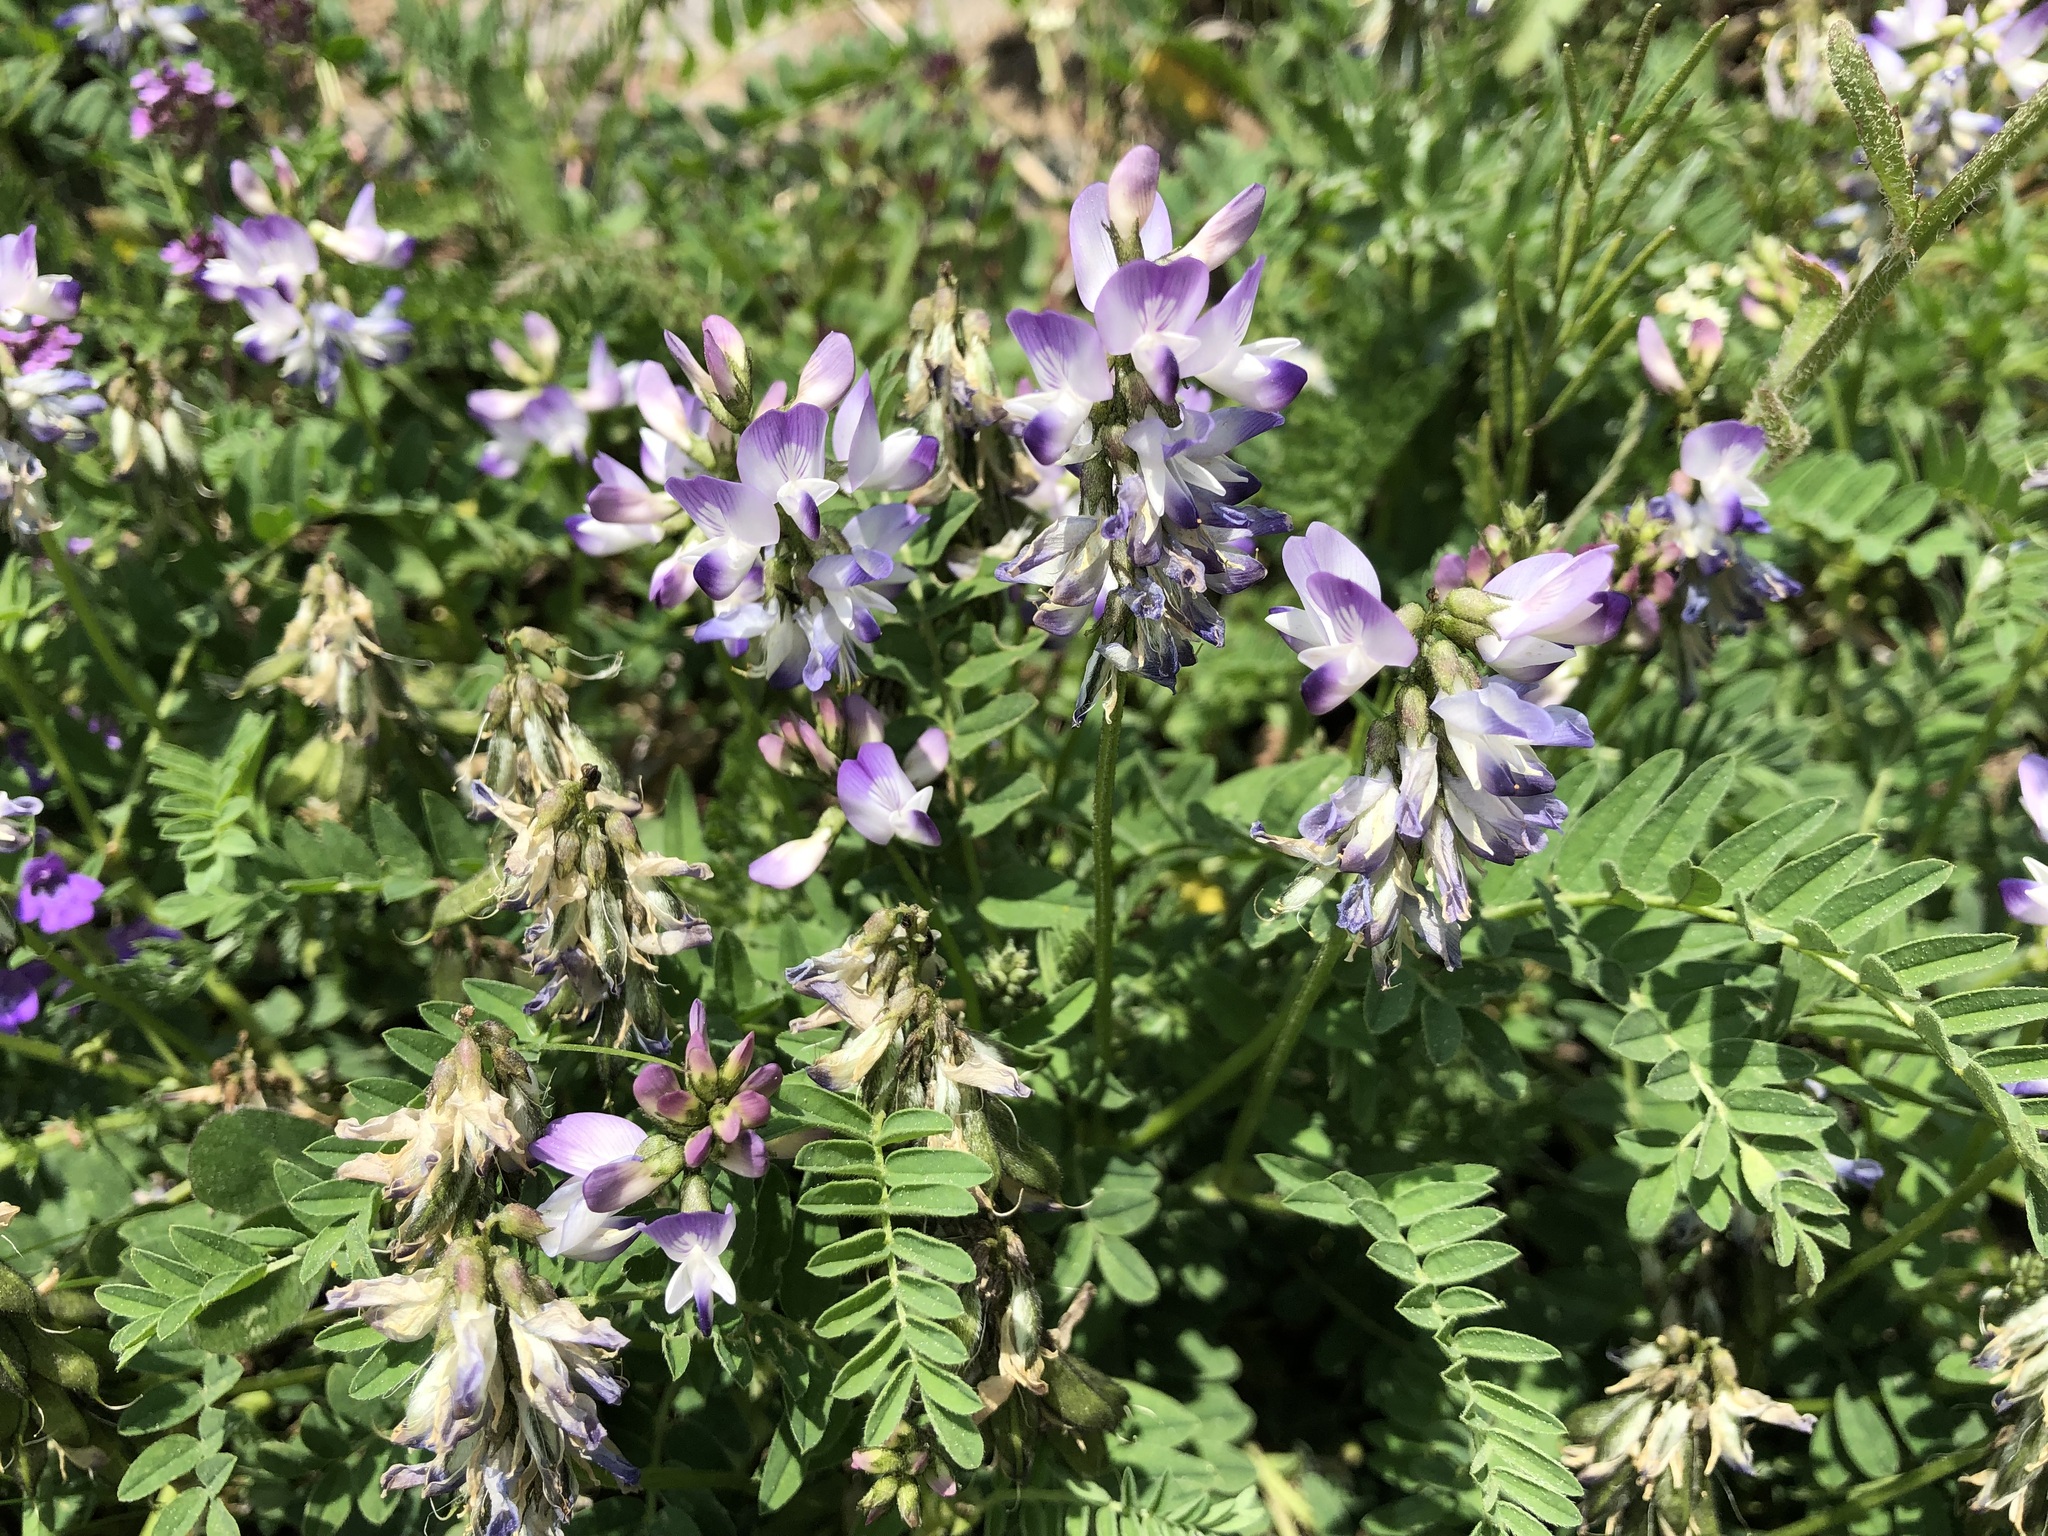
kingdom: Plantae
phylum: Tracheophyta
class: Magnoliopsida
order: Fabales
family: Fabaceae
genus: Astragalus
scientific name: Astragalus alpinus
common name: Alpine milk-vetch
